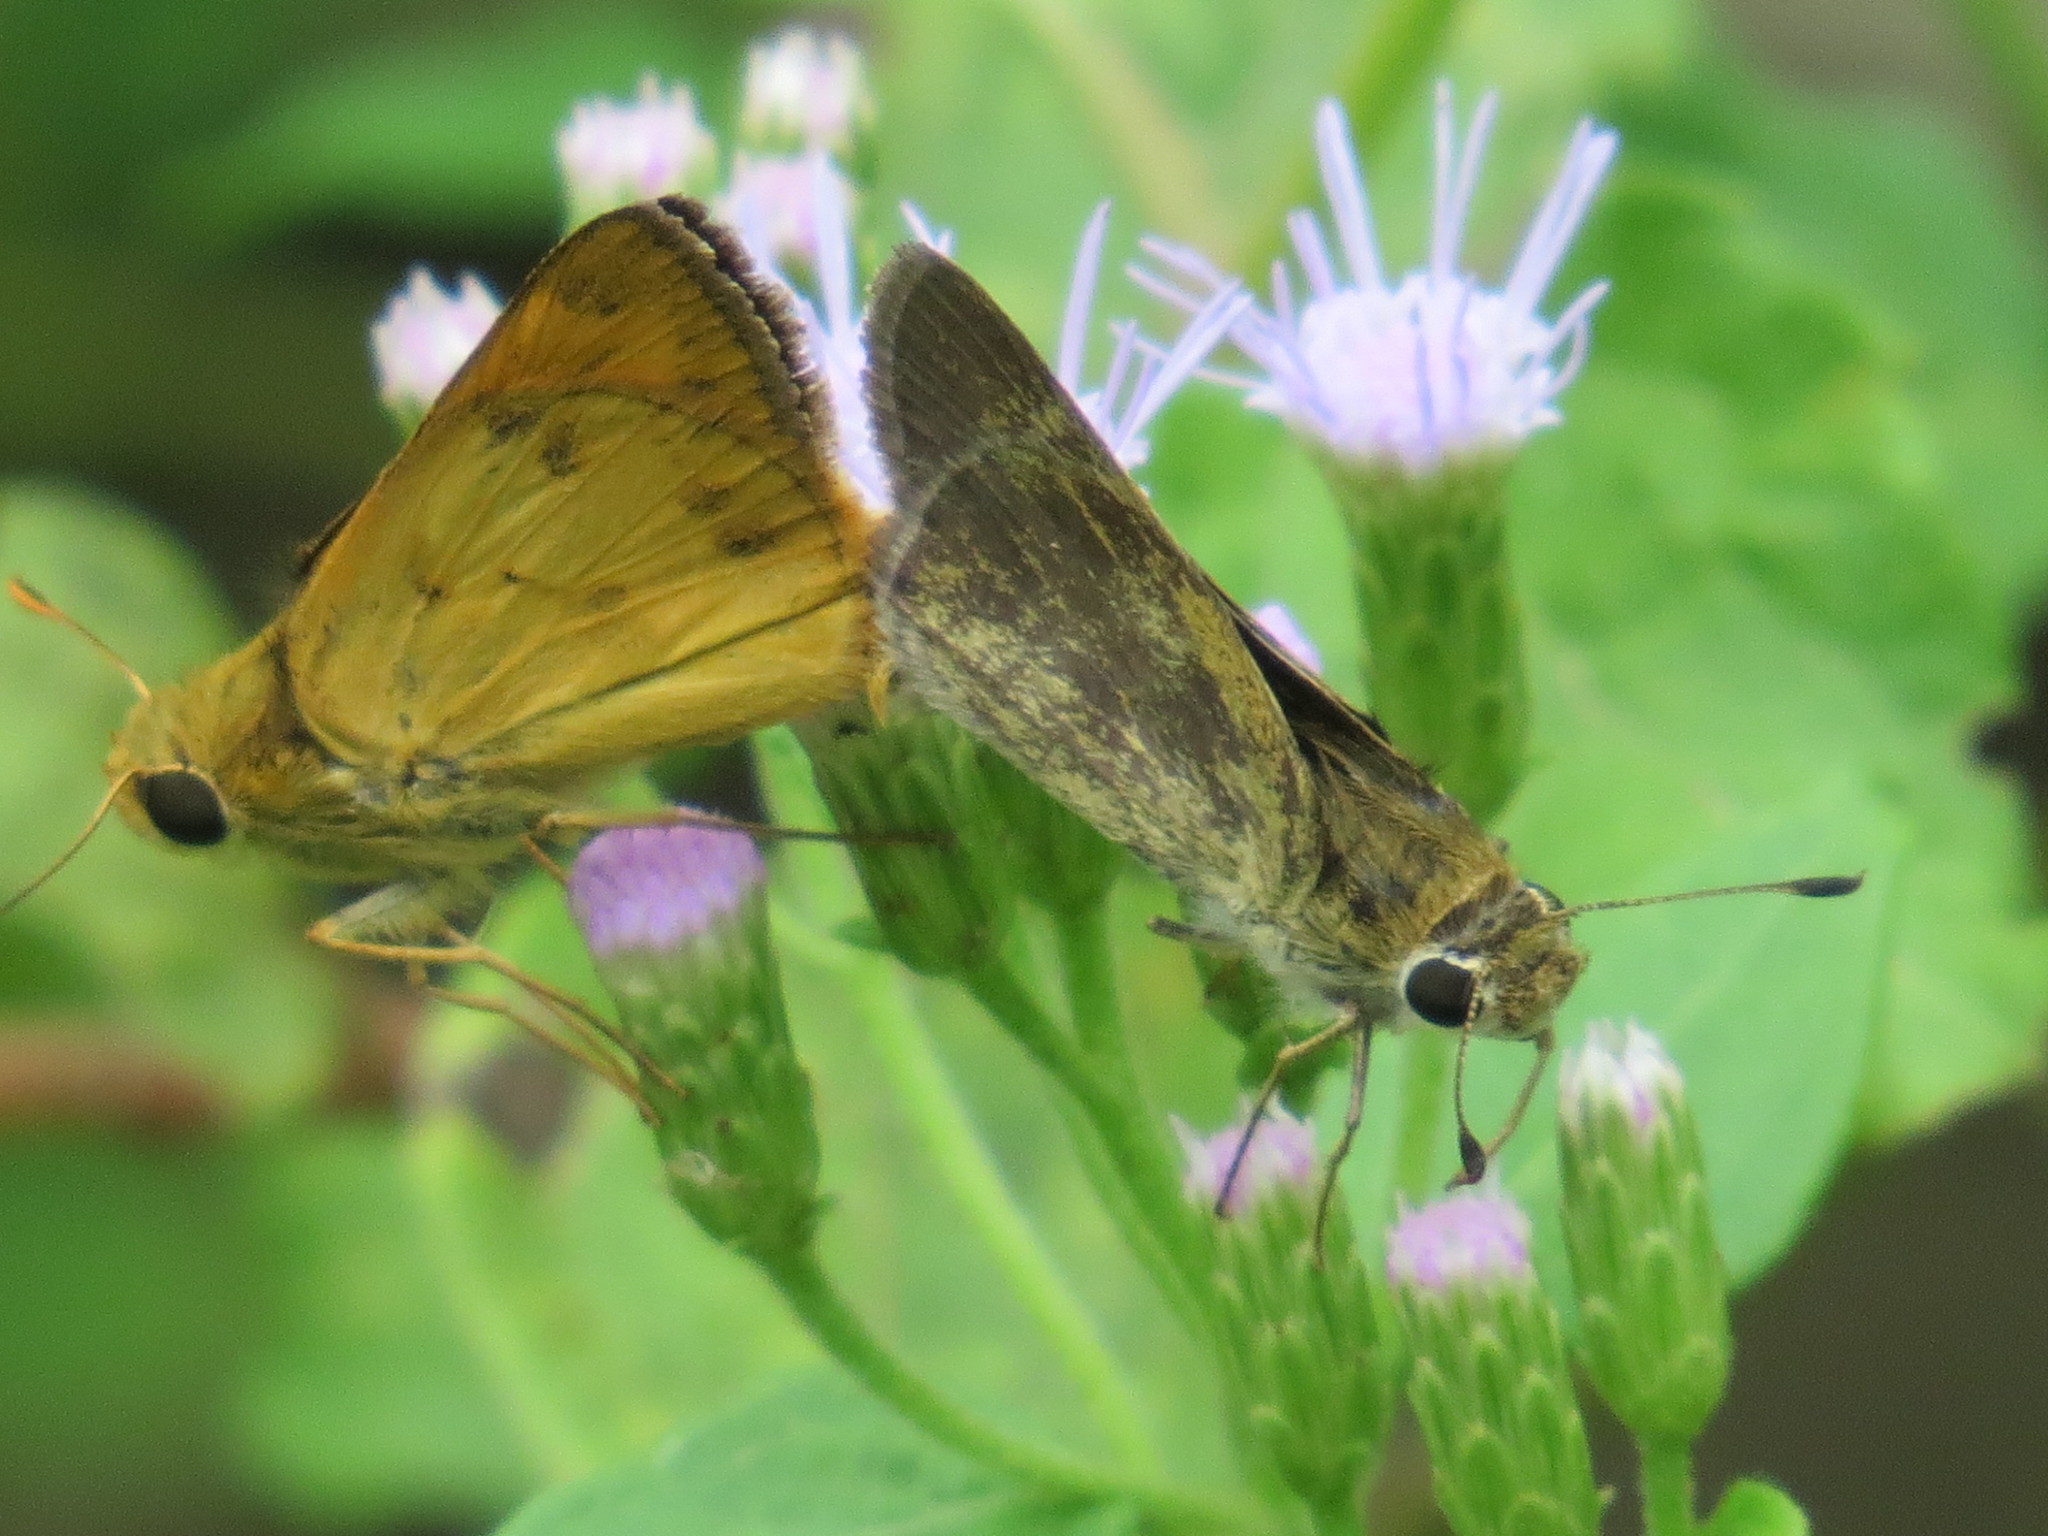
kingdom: Animalia
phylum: Arthropoda
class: Insecta
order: Lepidoptera
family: Hesperiidae
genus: Polites
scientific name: Polites vibex
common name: Whirlabout
